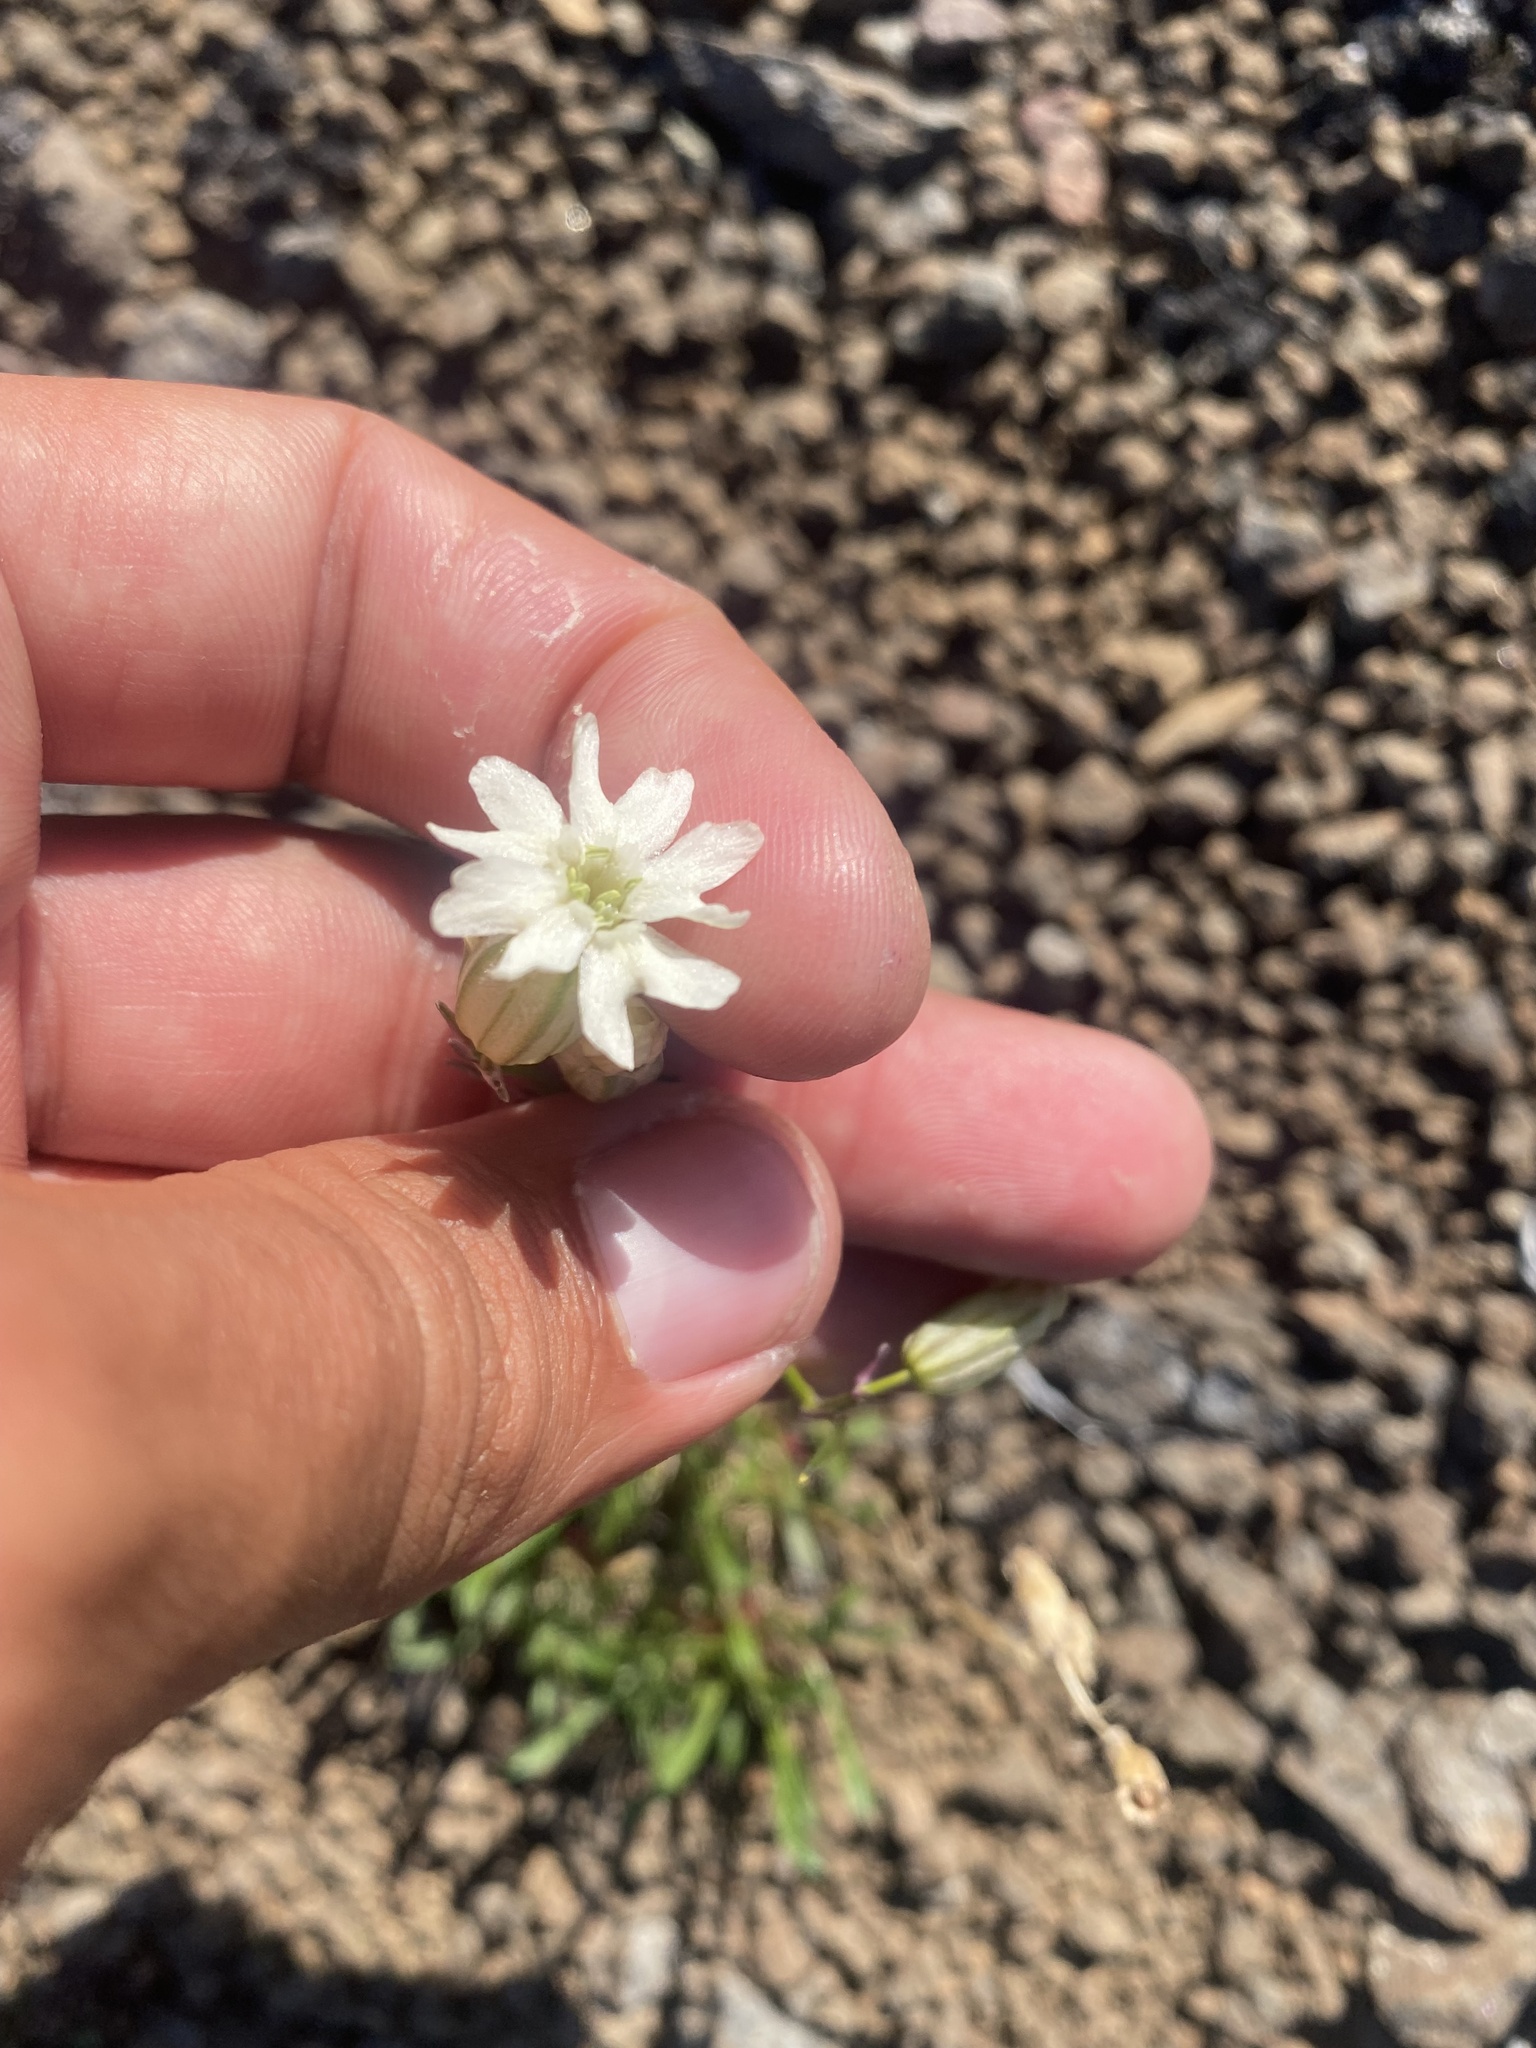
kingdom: Plantae
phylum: Tracheophyta
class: Magnoliopsida
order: Caryophyllales
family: Caryophyllaceae
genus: Silene
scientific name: Silene chamarensis
